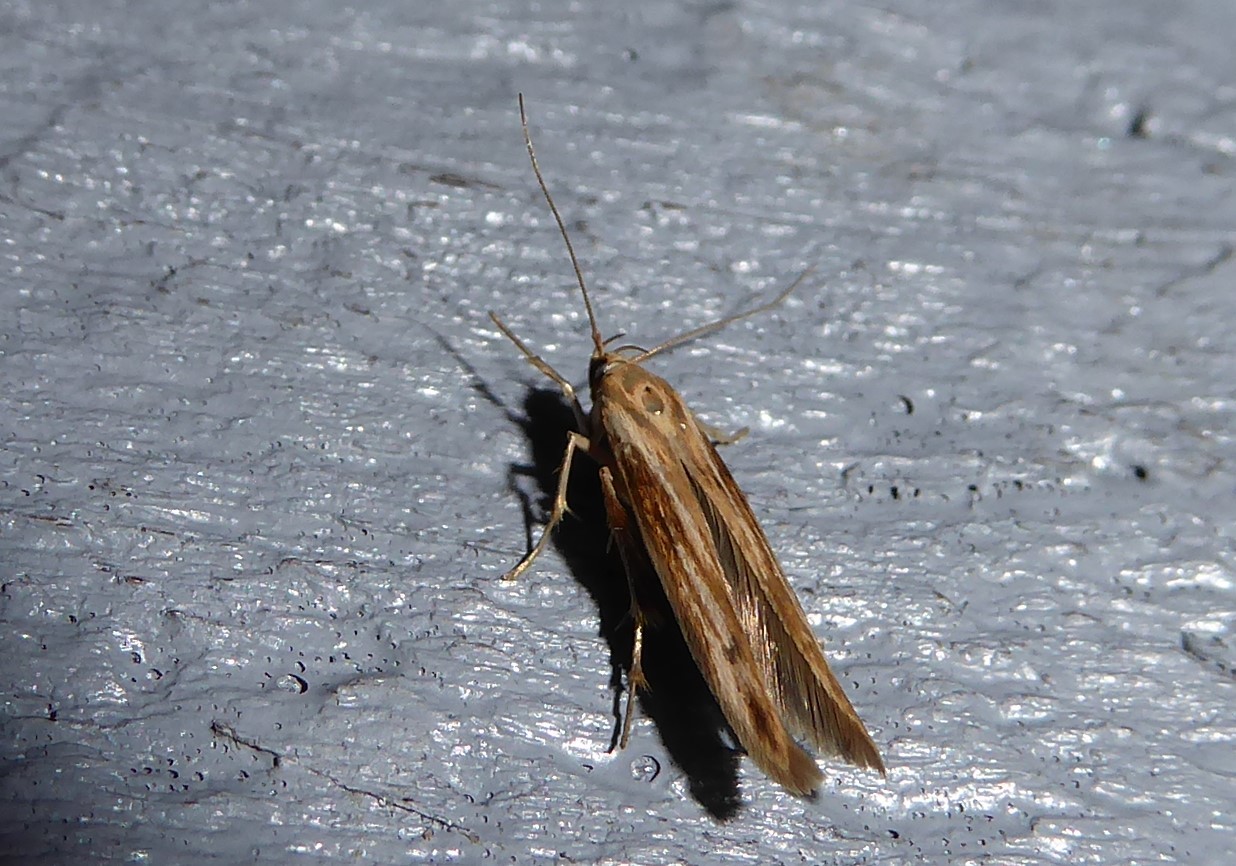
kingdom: Animalia
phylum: Arthropoda
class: Insecta
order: Lepidoptera
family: Stathmopodidae
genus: Stathmopoda
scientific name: Stathmopoda aposema
